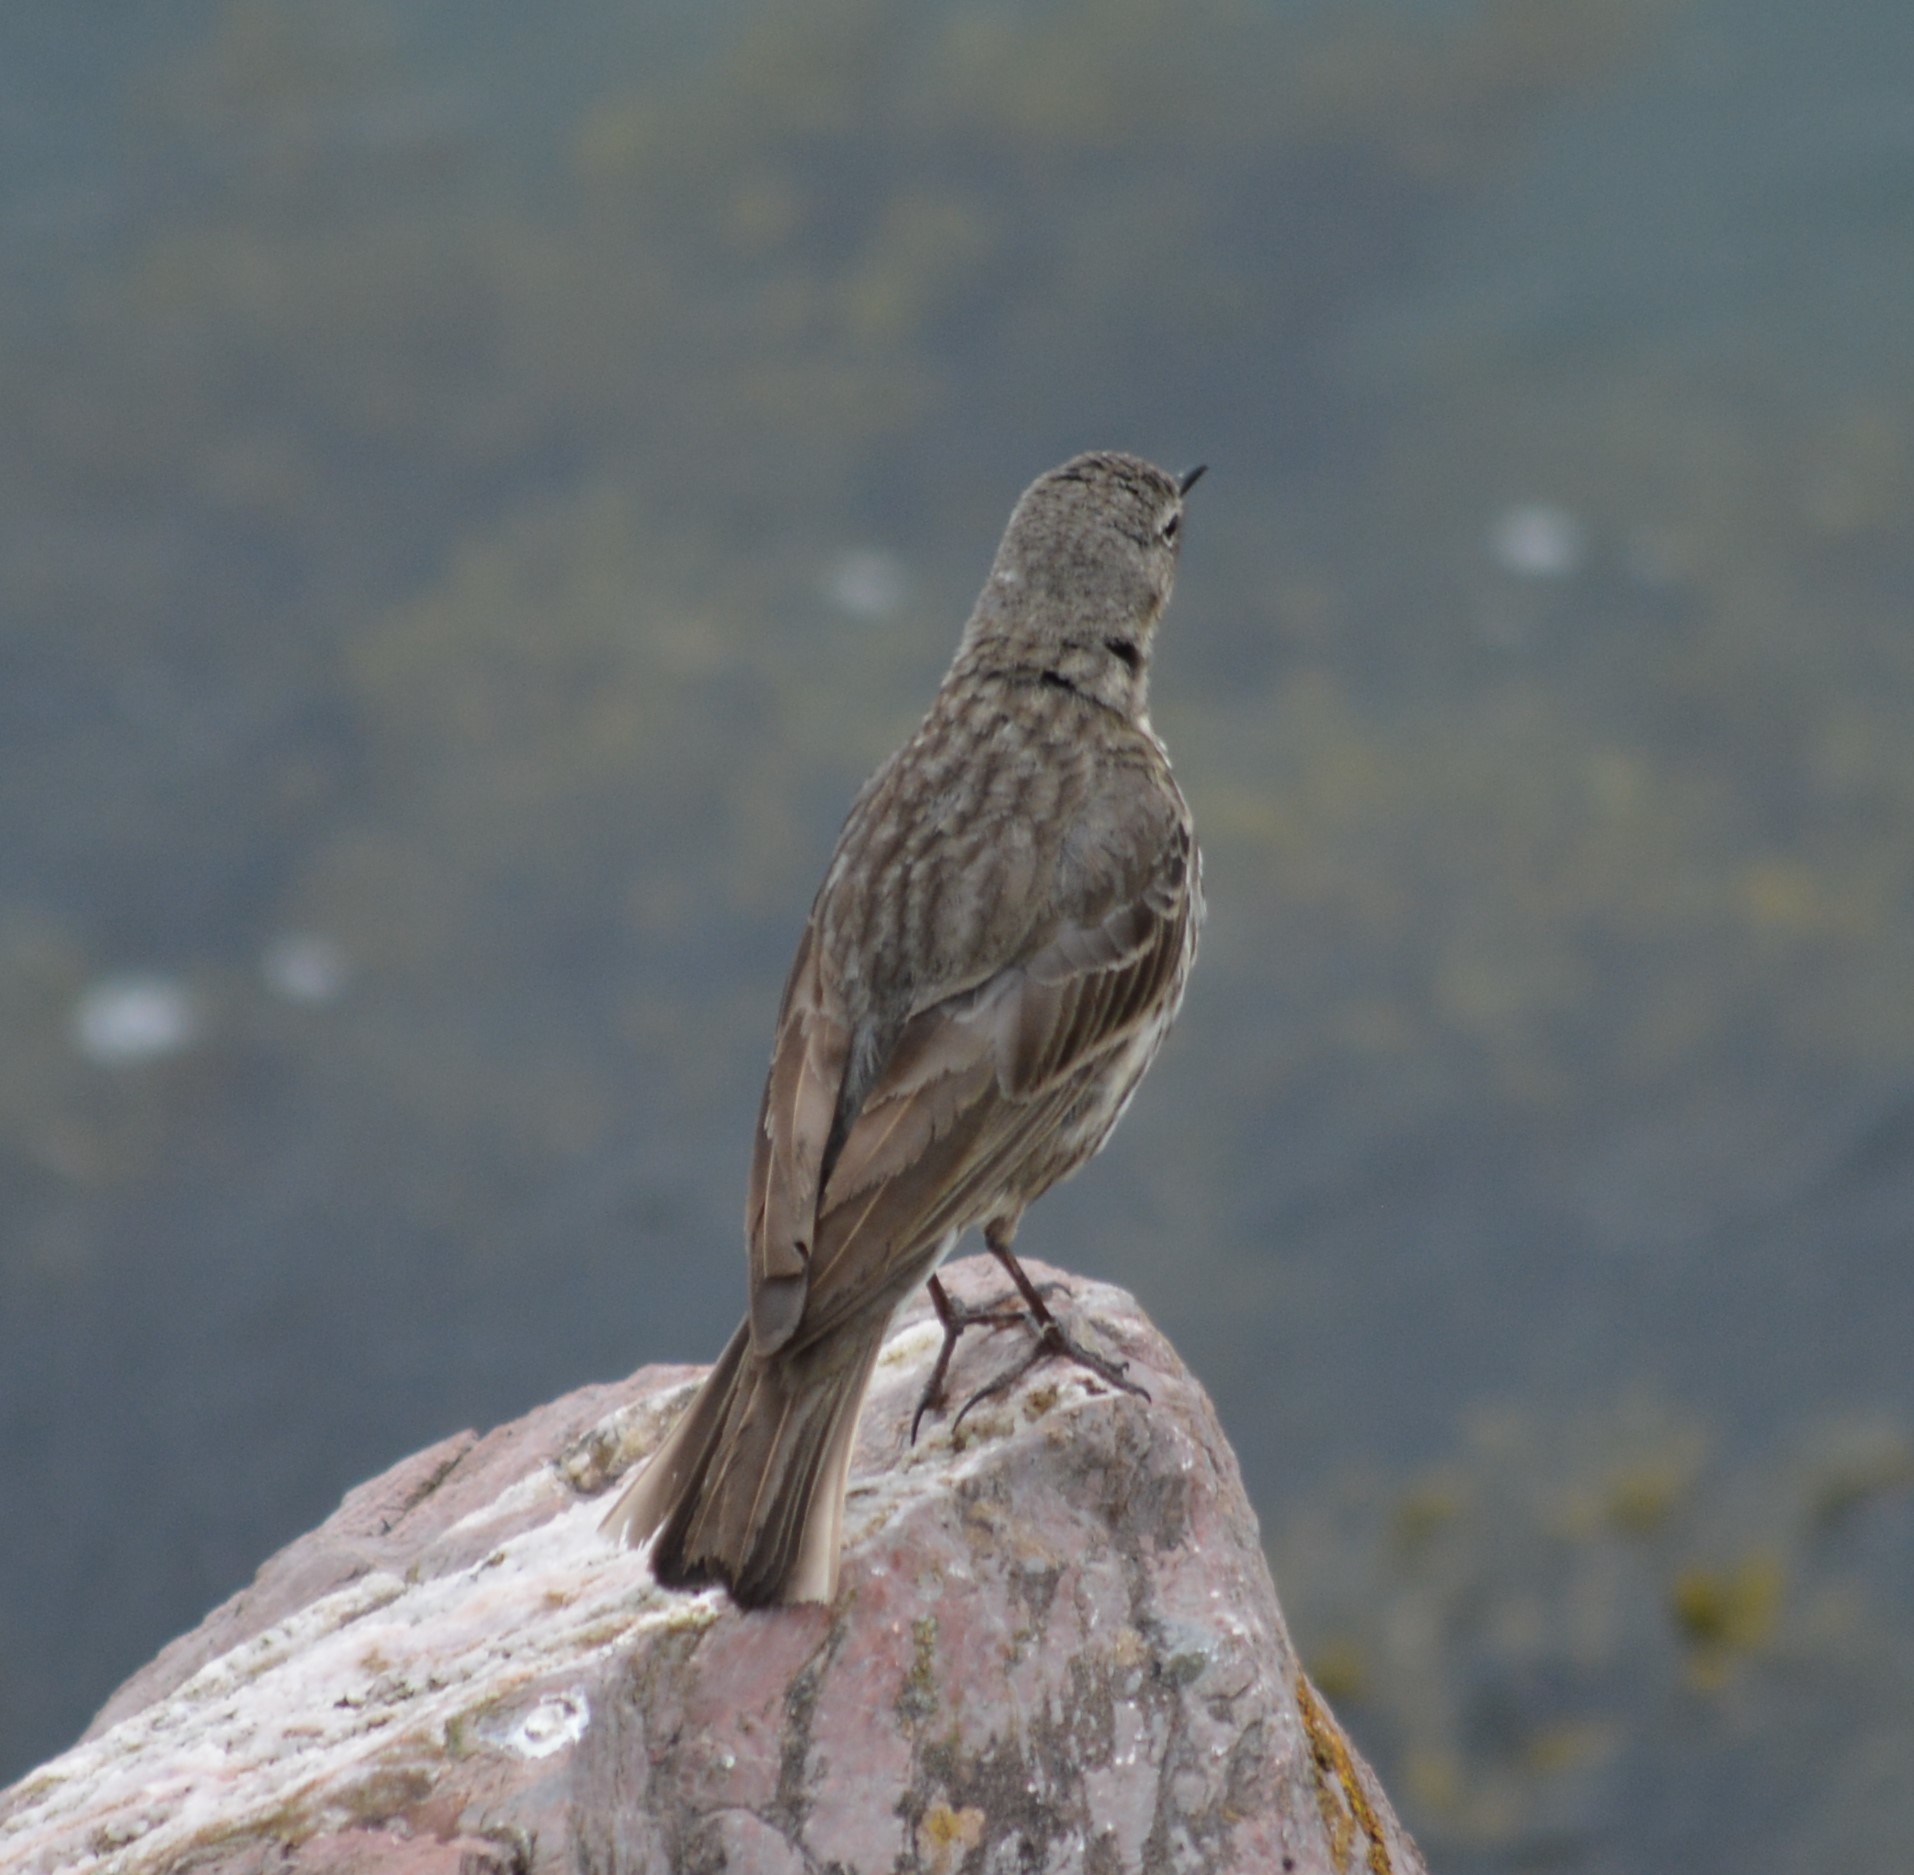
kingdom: Animalia
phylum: Chordata
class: Aves
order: Passeriformes
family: Motacillidae
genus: Anthus
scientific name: Anthus petrosus
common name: Eurasian rock pipit
